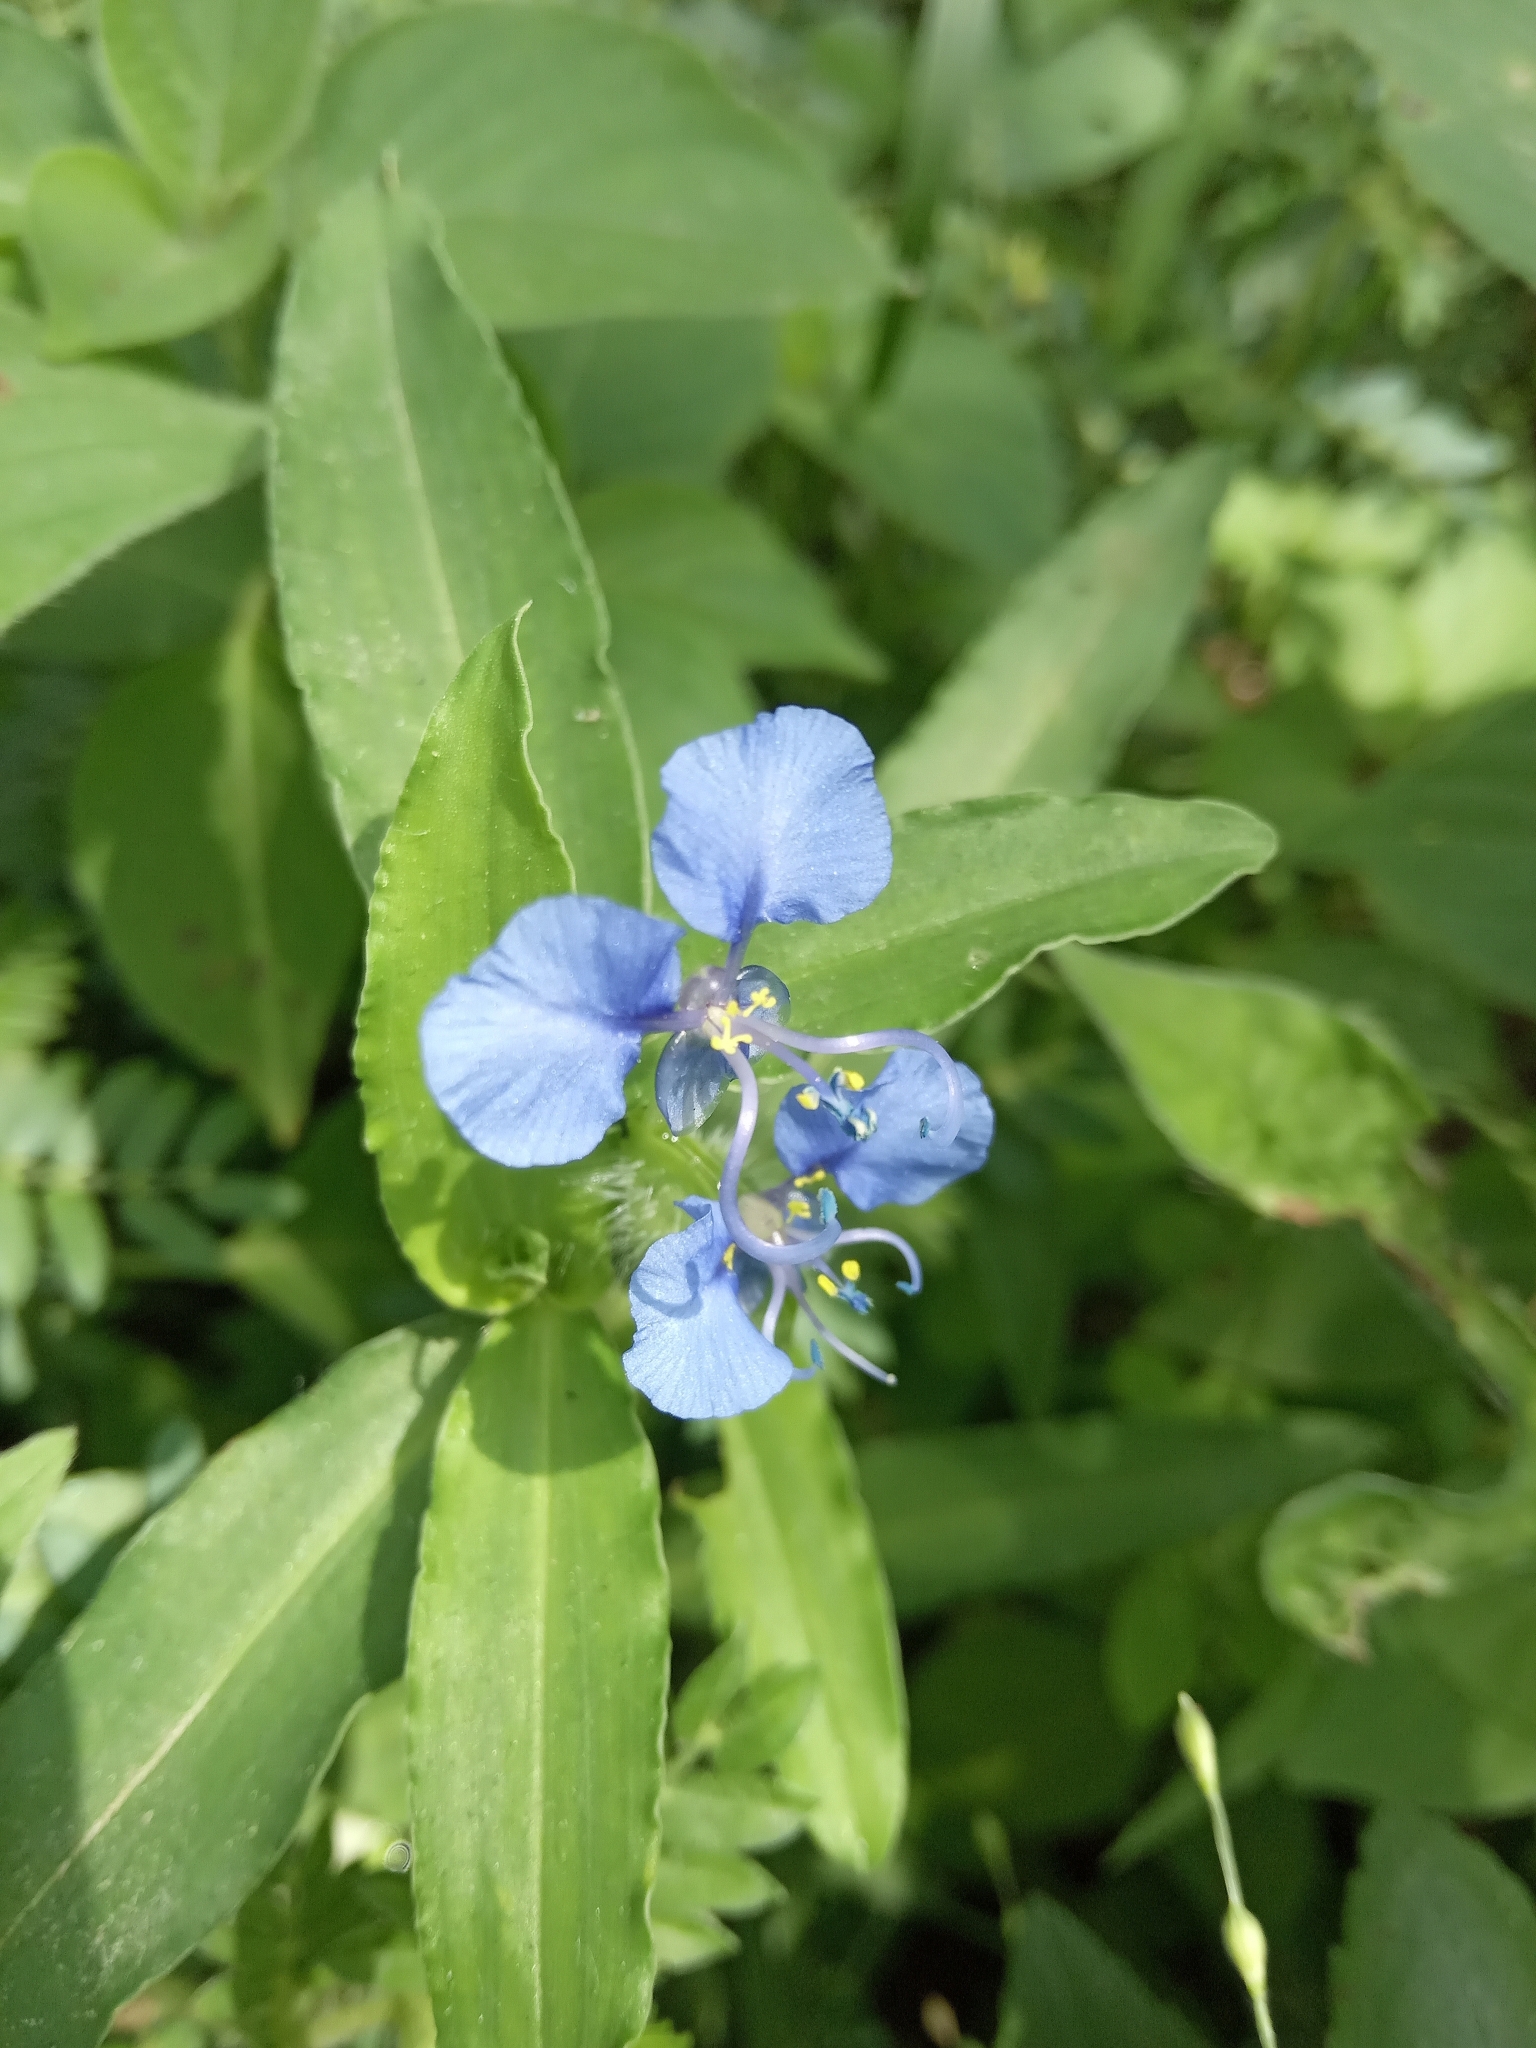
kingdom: Plantae
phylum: Tracheophyta
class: Liliopsida
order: Commelinales
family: Commelinaceae
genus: Commelina
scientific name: Commelina forskaolii
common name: Rat's ear
